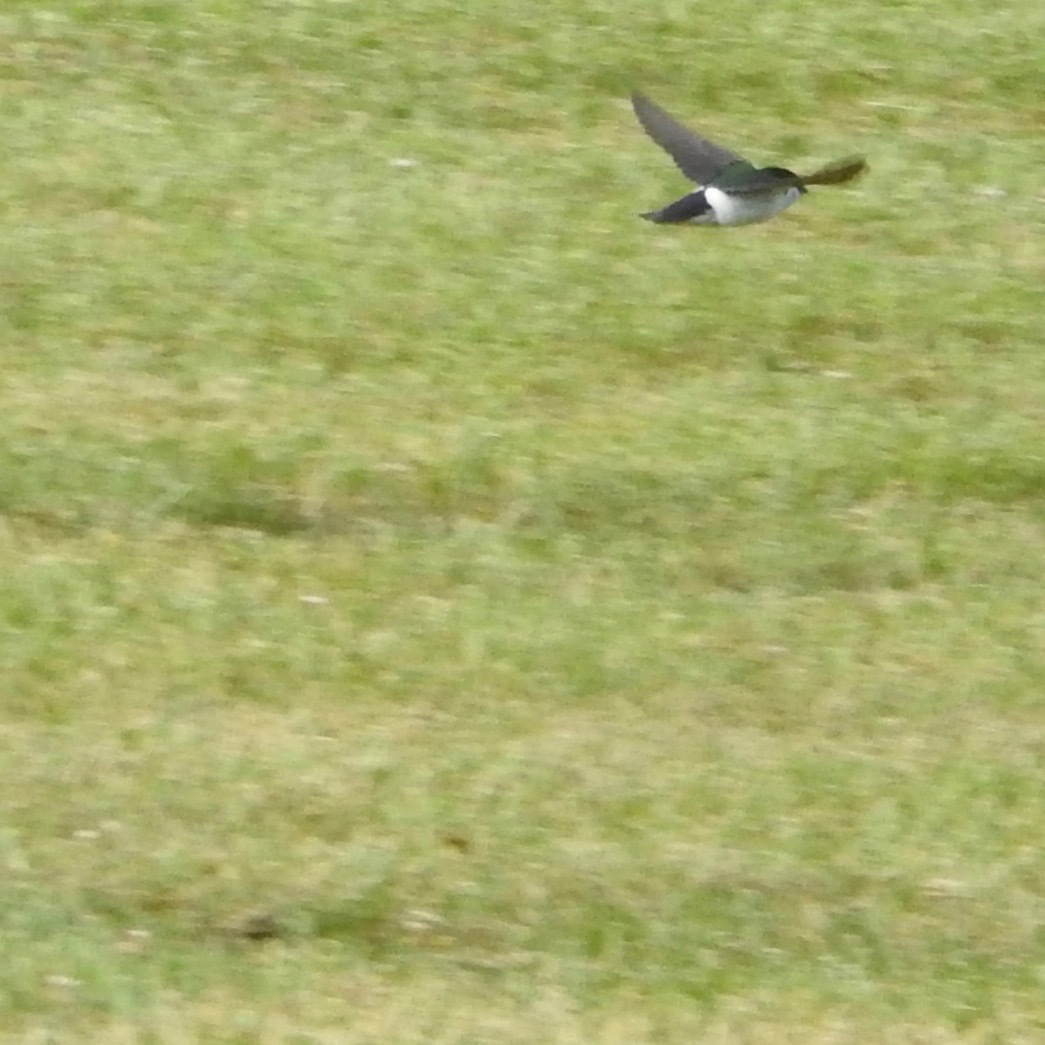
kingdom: Animalia
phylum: Chordata
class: Aves
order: Passeriformes
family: Hirundinidae
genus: Tachycineta
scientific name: Tachycineta thalassina
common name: Violet-green swallow
